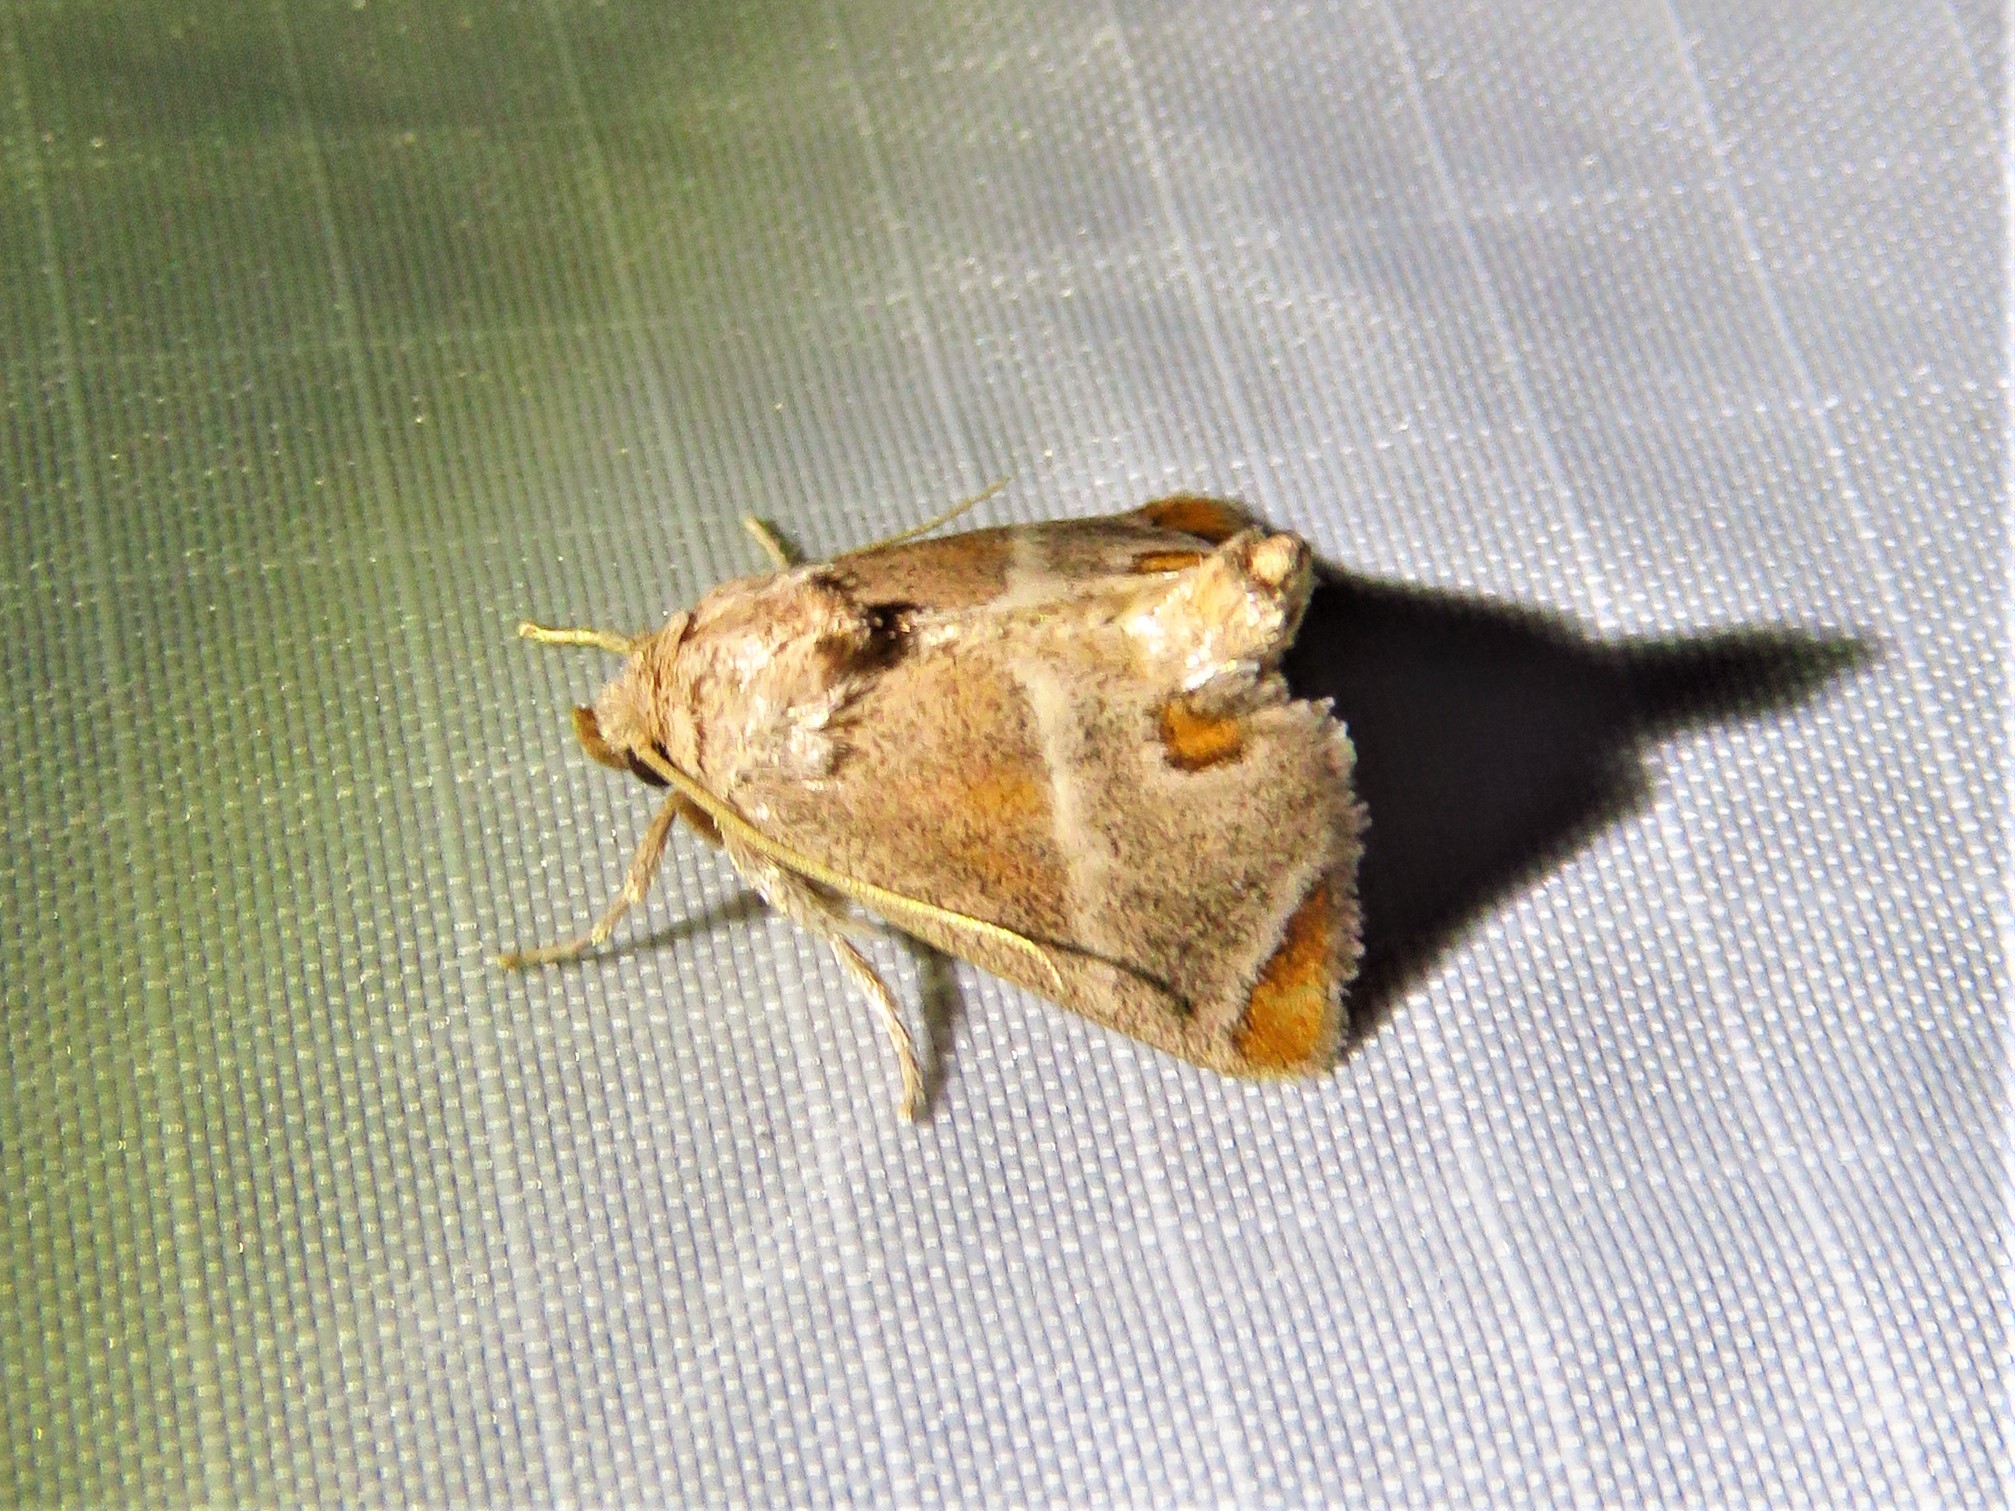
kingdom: Animalia
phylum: Arthropoda
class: Insecta
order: Lepidoptera
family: Limacodidae
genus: Apoda
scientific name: Apoda biguttata
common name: Shagreened slug moth
